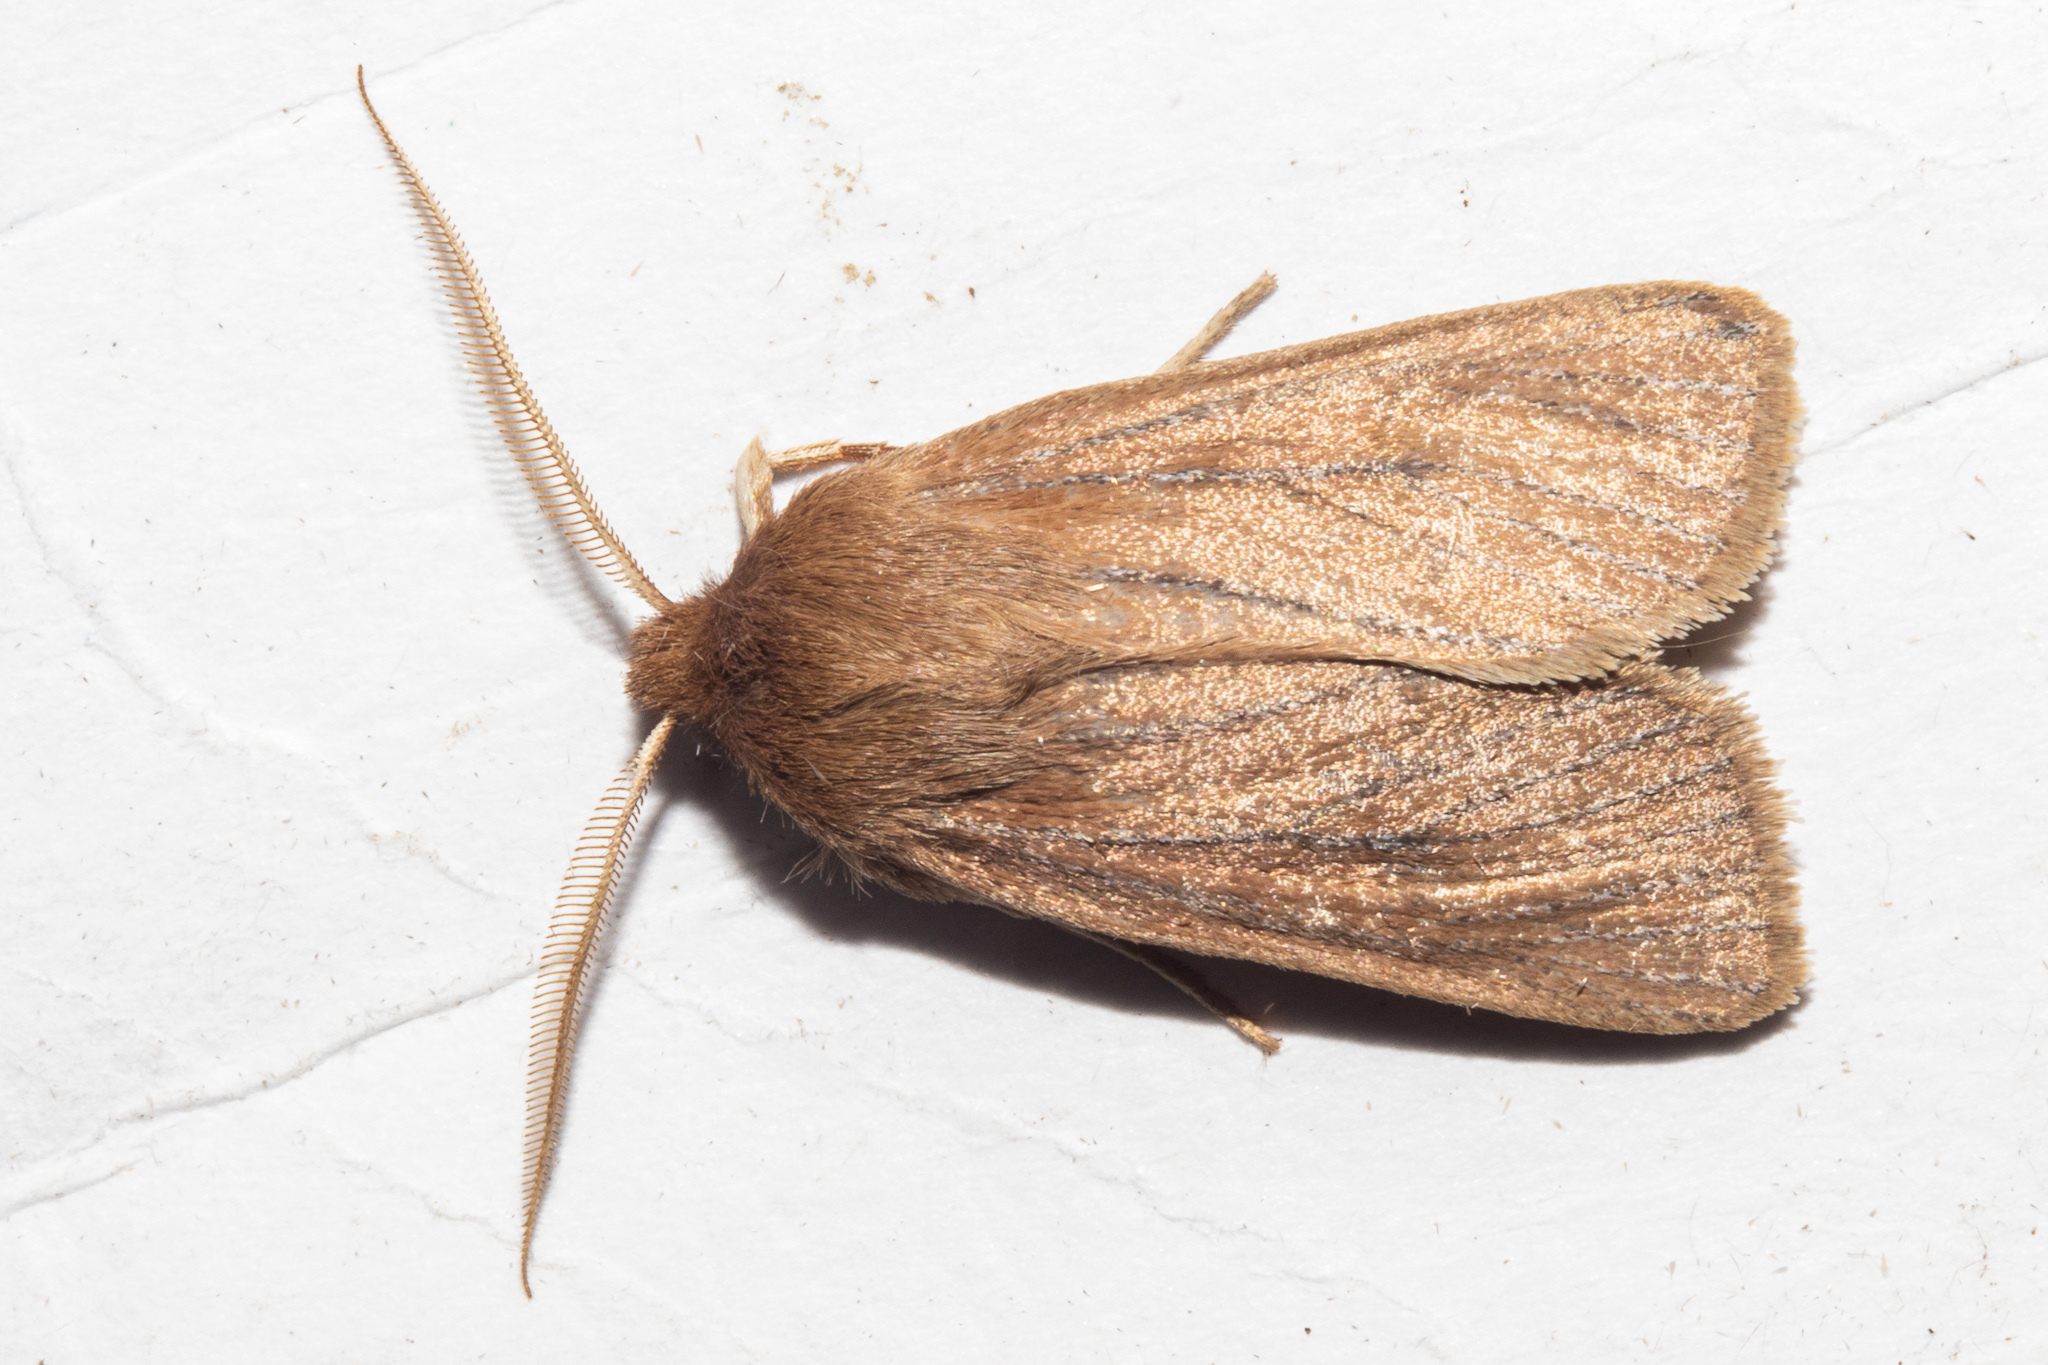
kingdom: Animalia
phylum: Arthropoda
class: Insecta
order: Lepidoptera
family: Noctuidae
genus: Ichneutica
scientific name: Ichneutica
